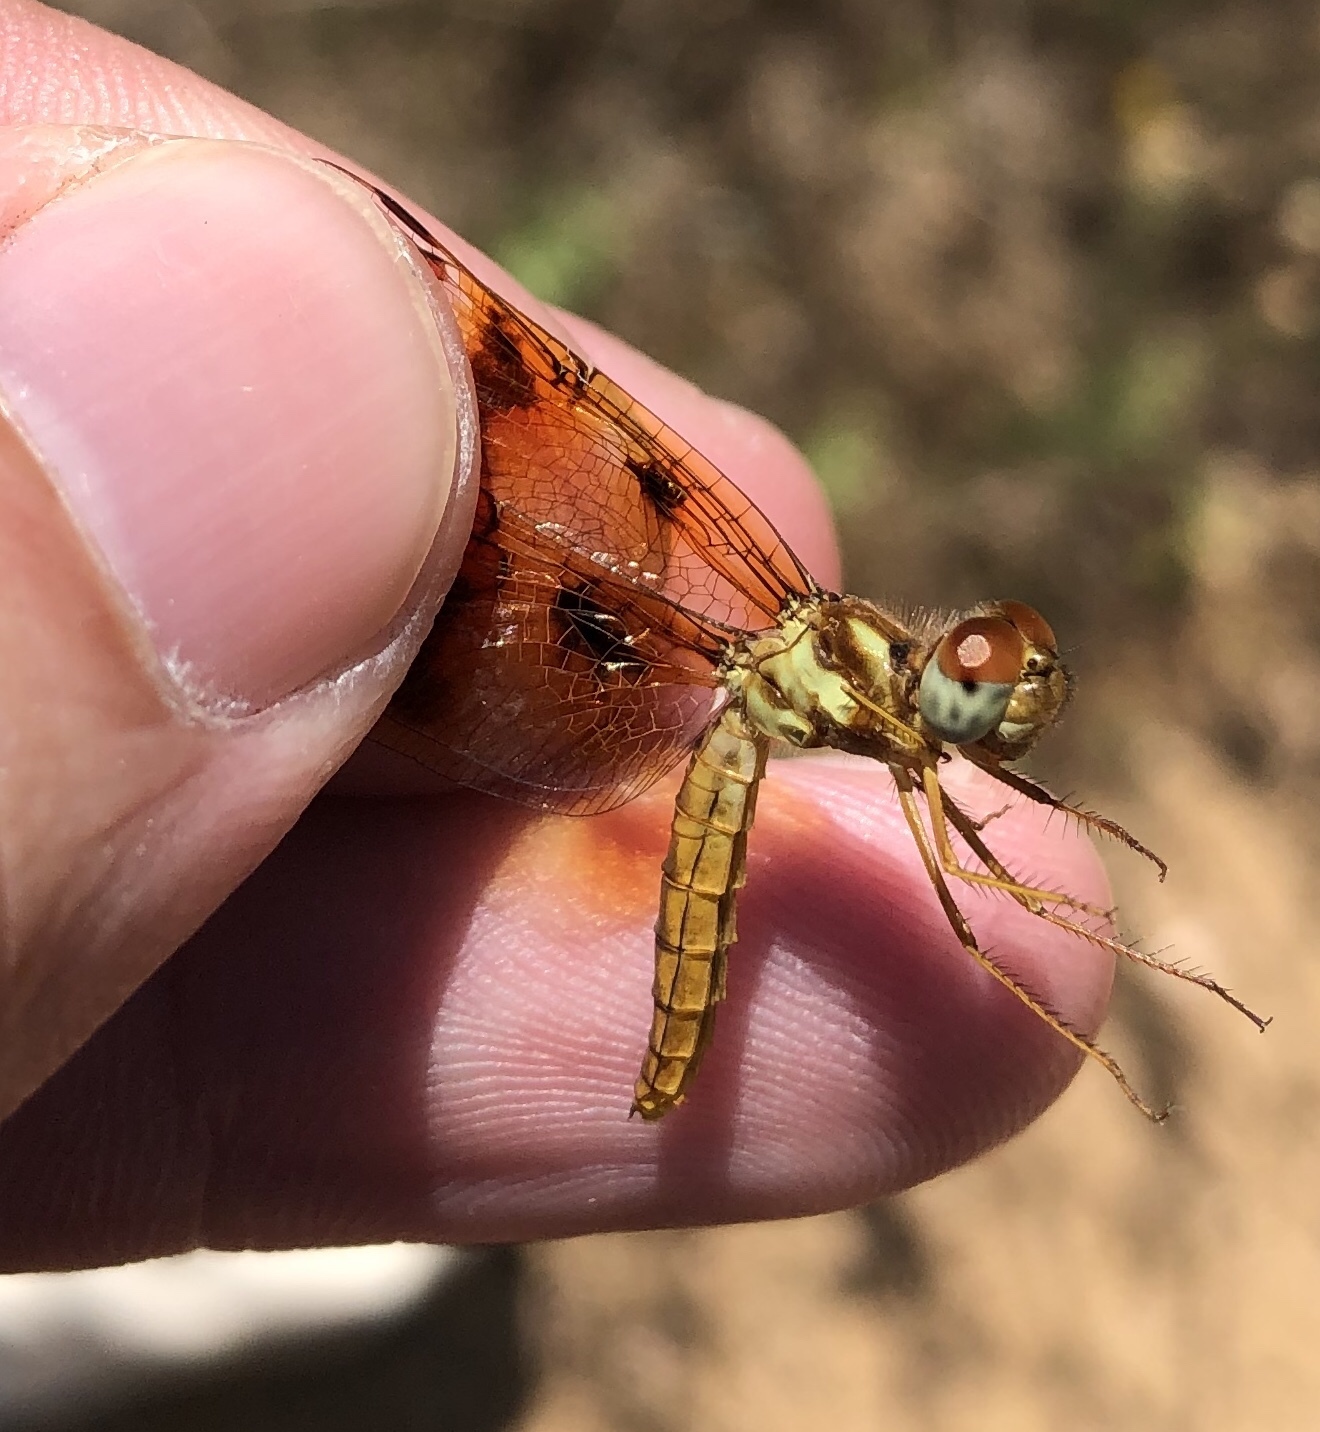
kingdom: Animalia
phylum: Arthropoda
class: Insecta
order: Odonata
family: Libellulidae
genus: Perithemis
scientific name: Perithemis tenera
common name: Eastern amberwing
